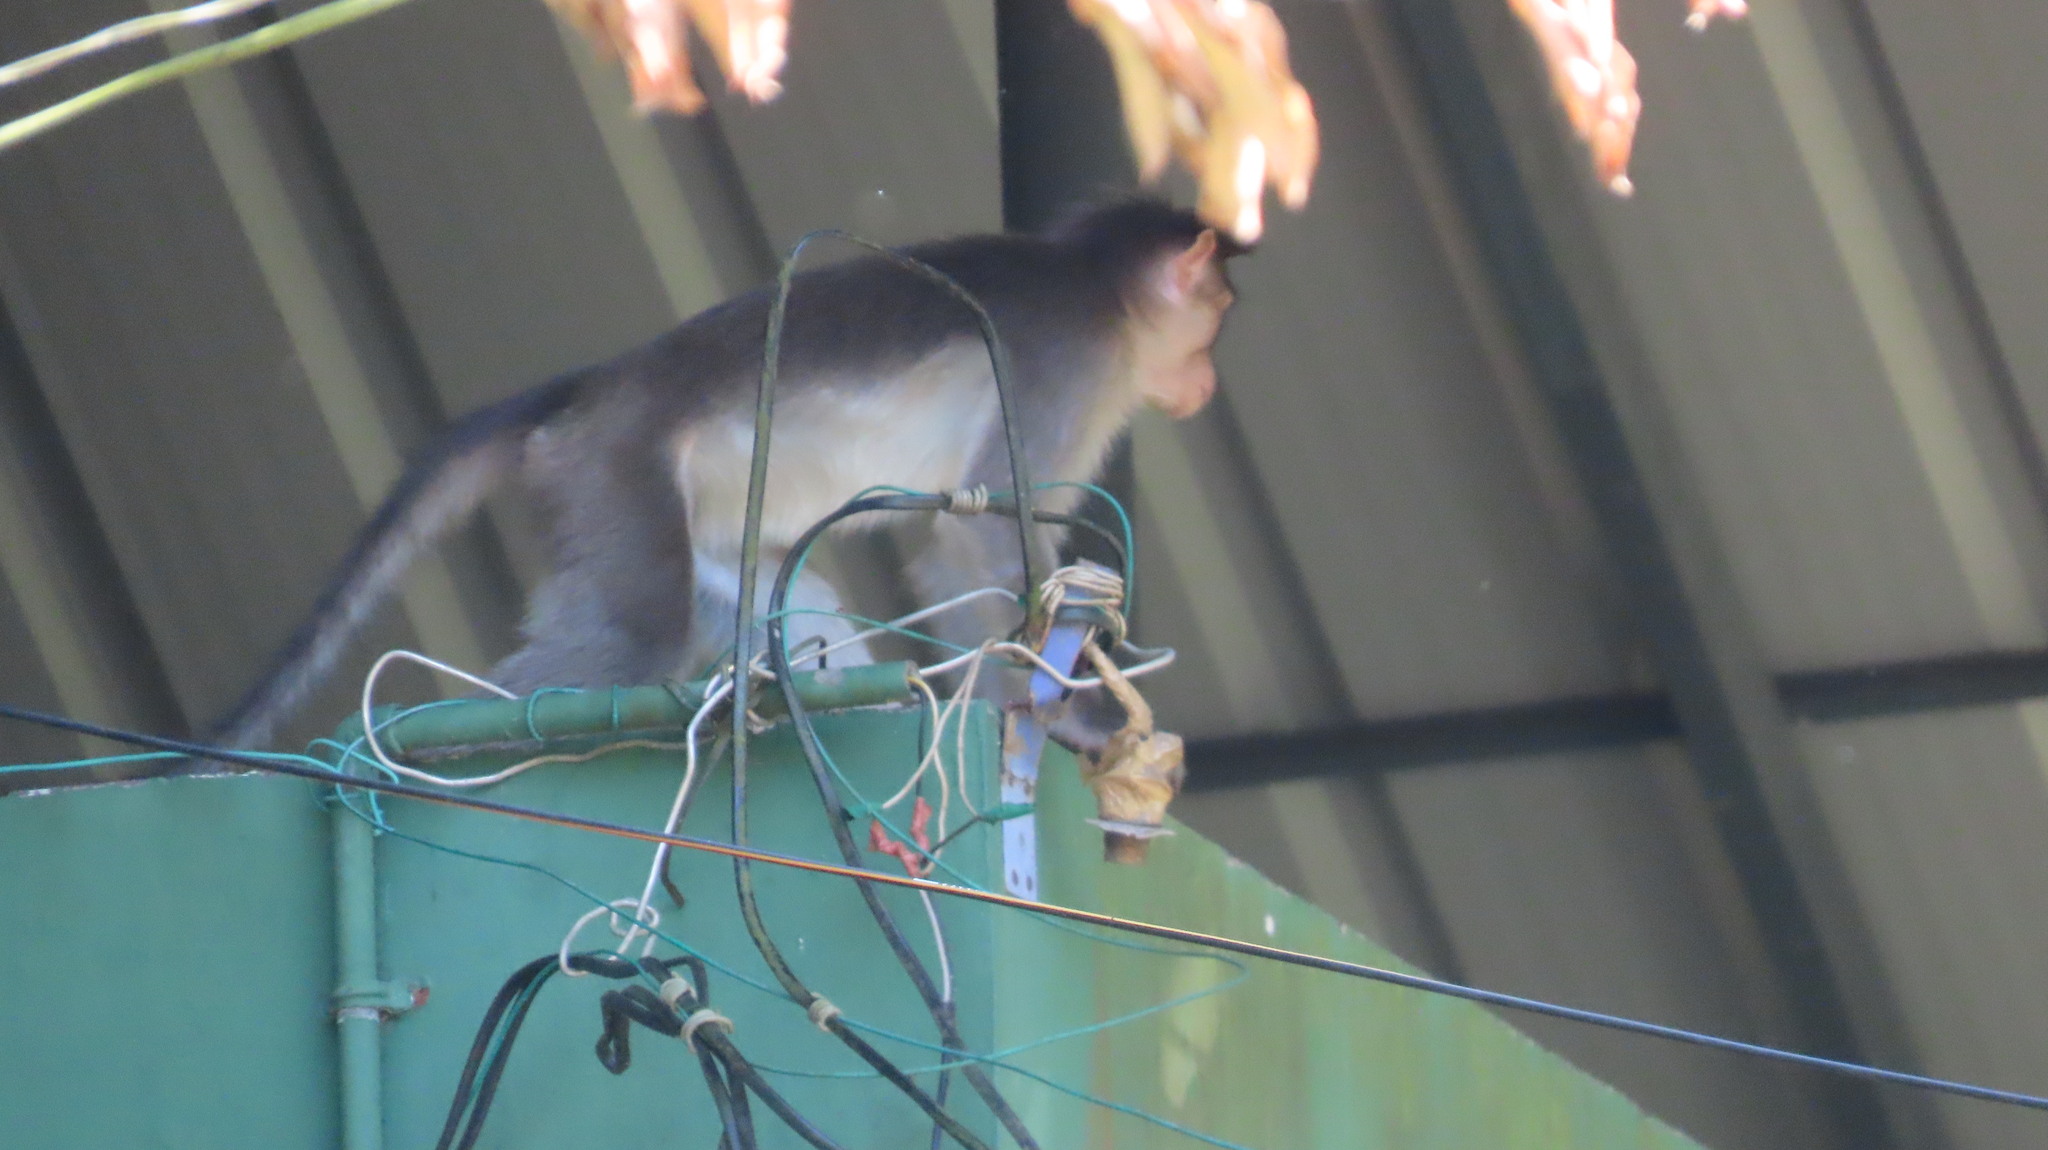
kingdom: Animalia
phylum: Chordata
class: Mammalia
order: Primates
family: Cercopithecidae
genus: Macaca
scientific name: Macaca radiata
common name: Bonnet macaque
